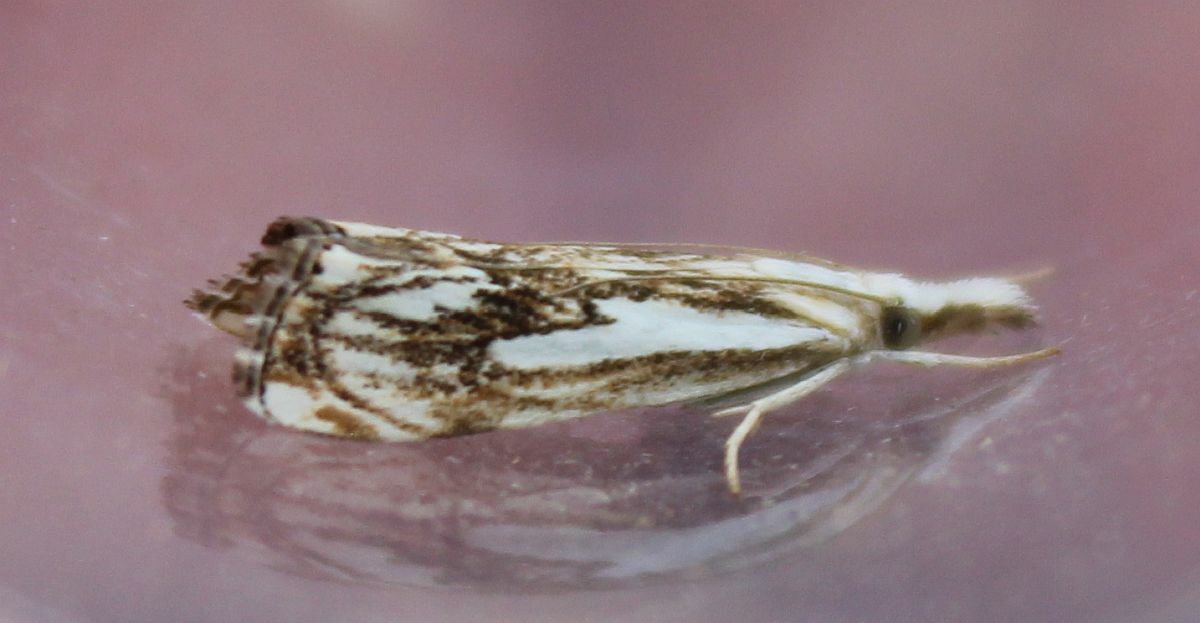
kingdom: Animalia
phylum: Arthropoda
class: Insecta
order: Lepidoptera
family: Crambidae
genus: Catoptria
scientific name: Catoptria falsella
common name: Chequered grass-veneer
